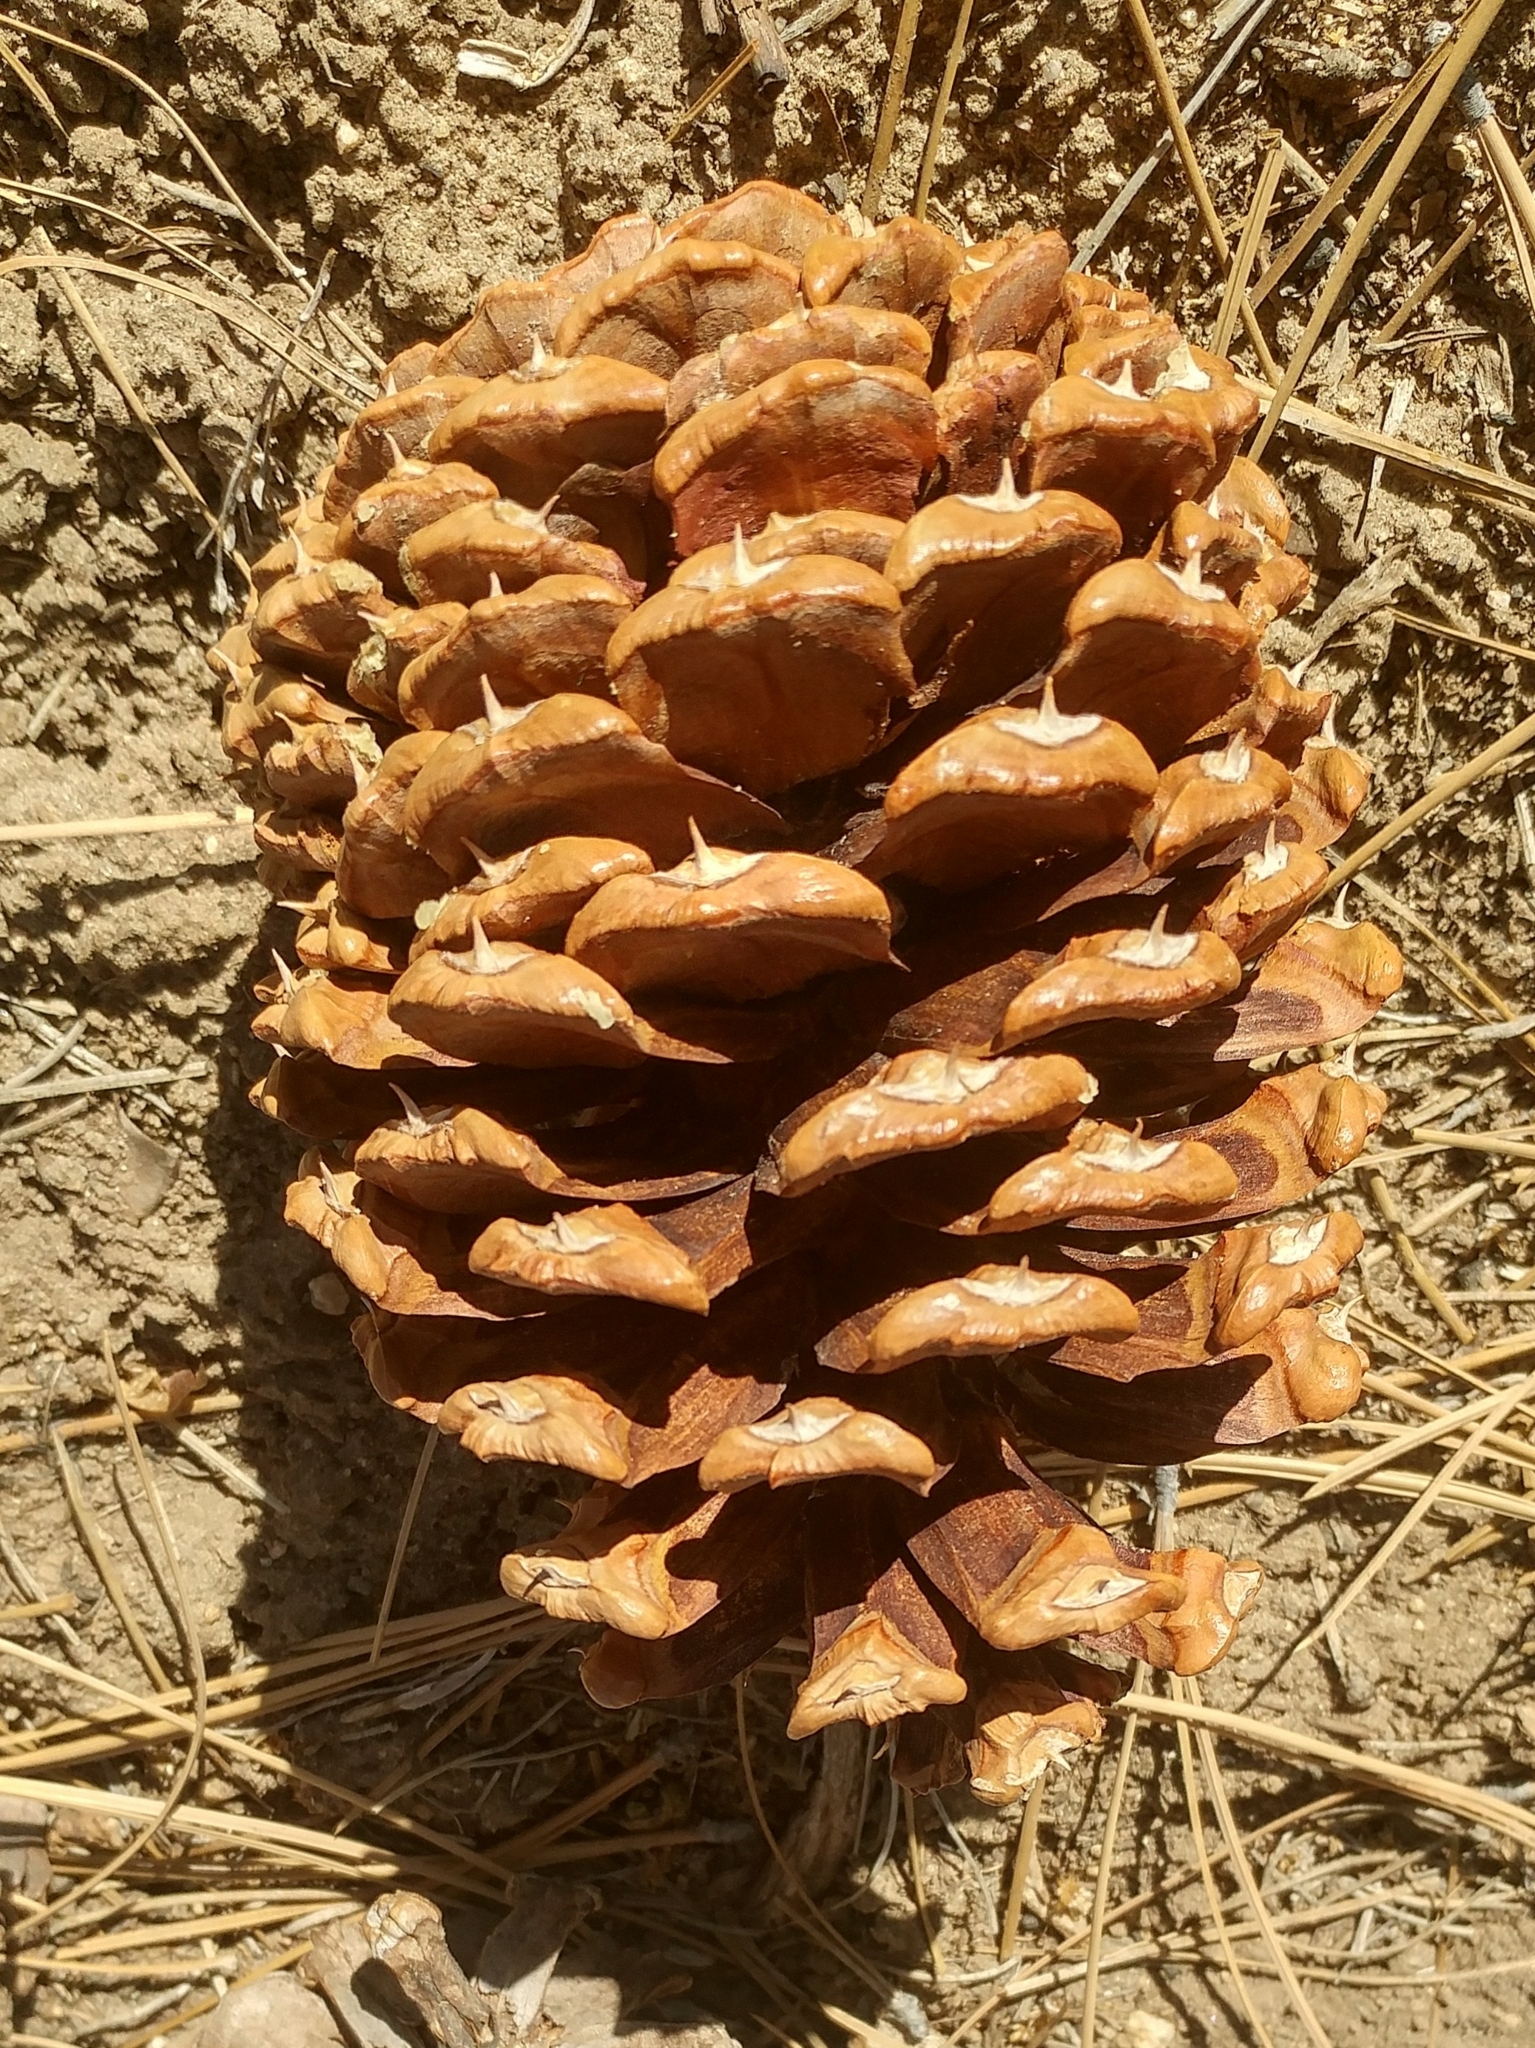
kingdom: Plantae
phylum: Tracheophyta
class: Pinopsida
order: Pinales
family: Pinaceae
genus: Pinus
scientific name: Pinus jeffreyi
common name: Jeffrey pine
